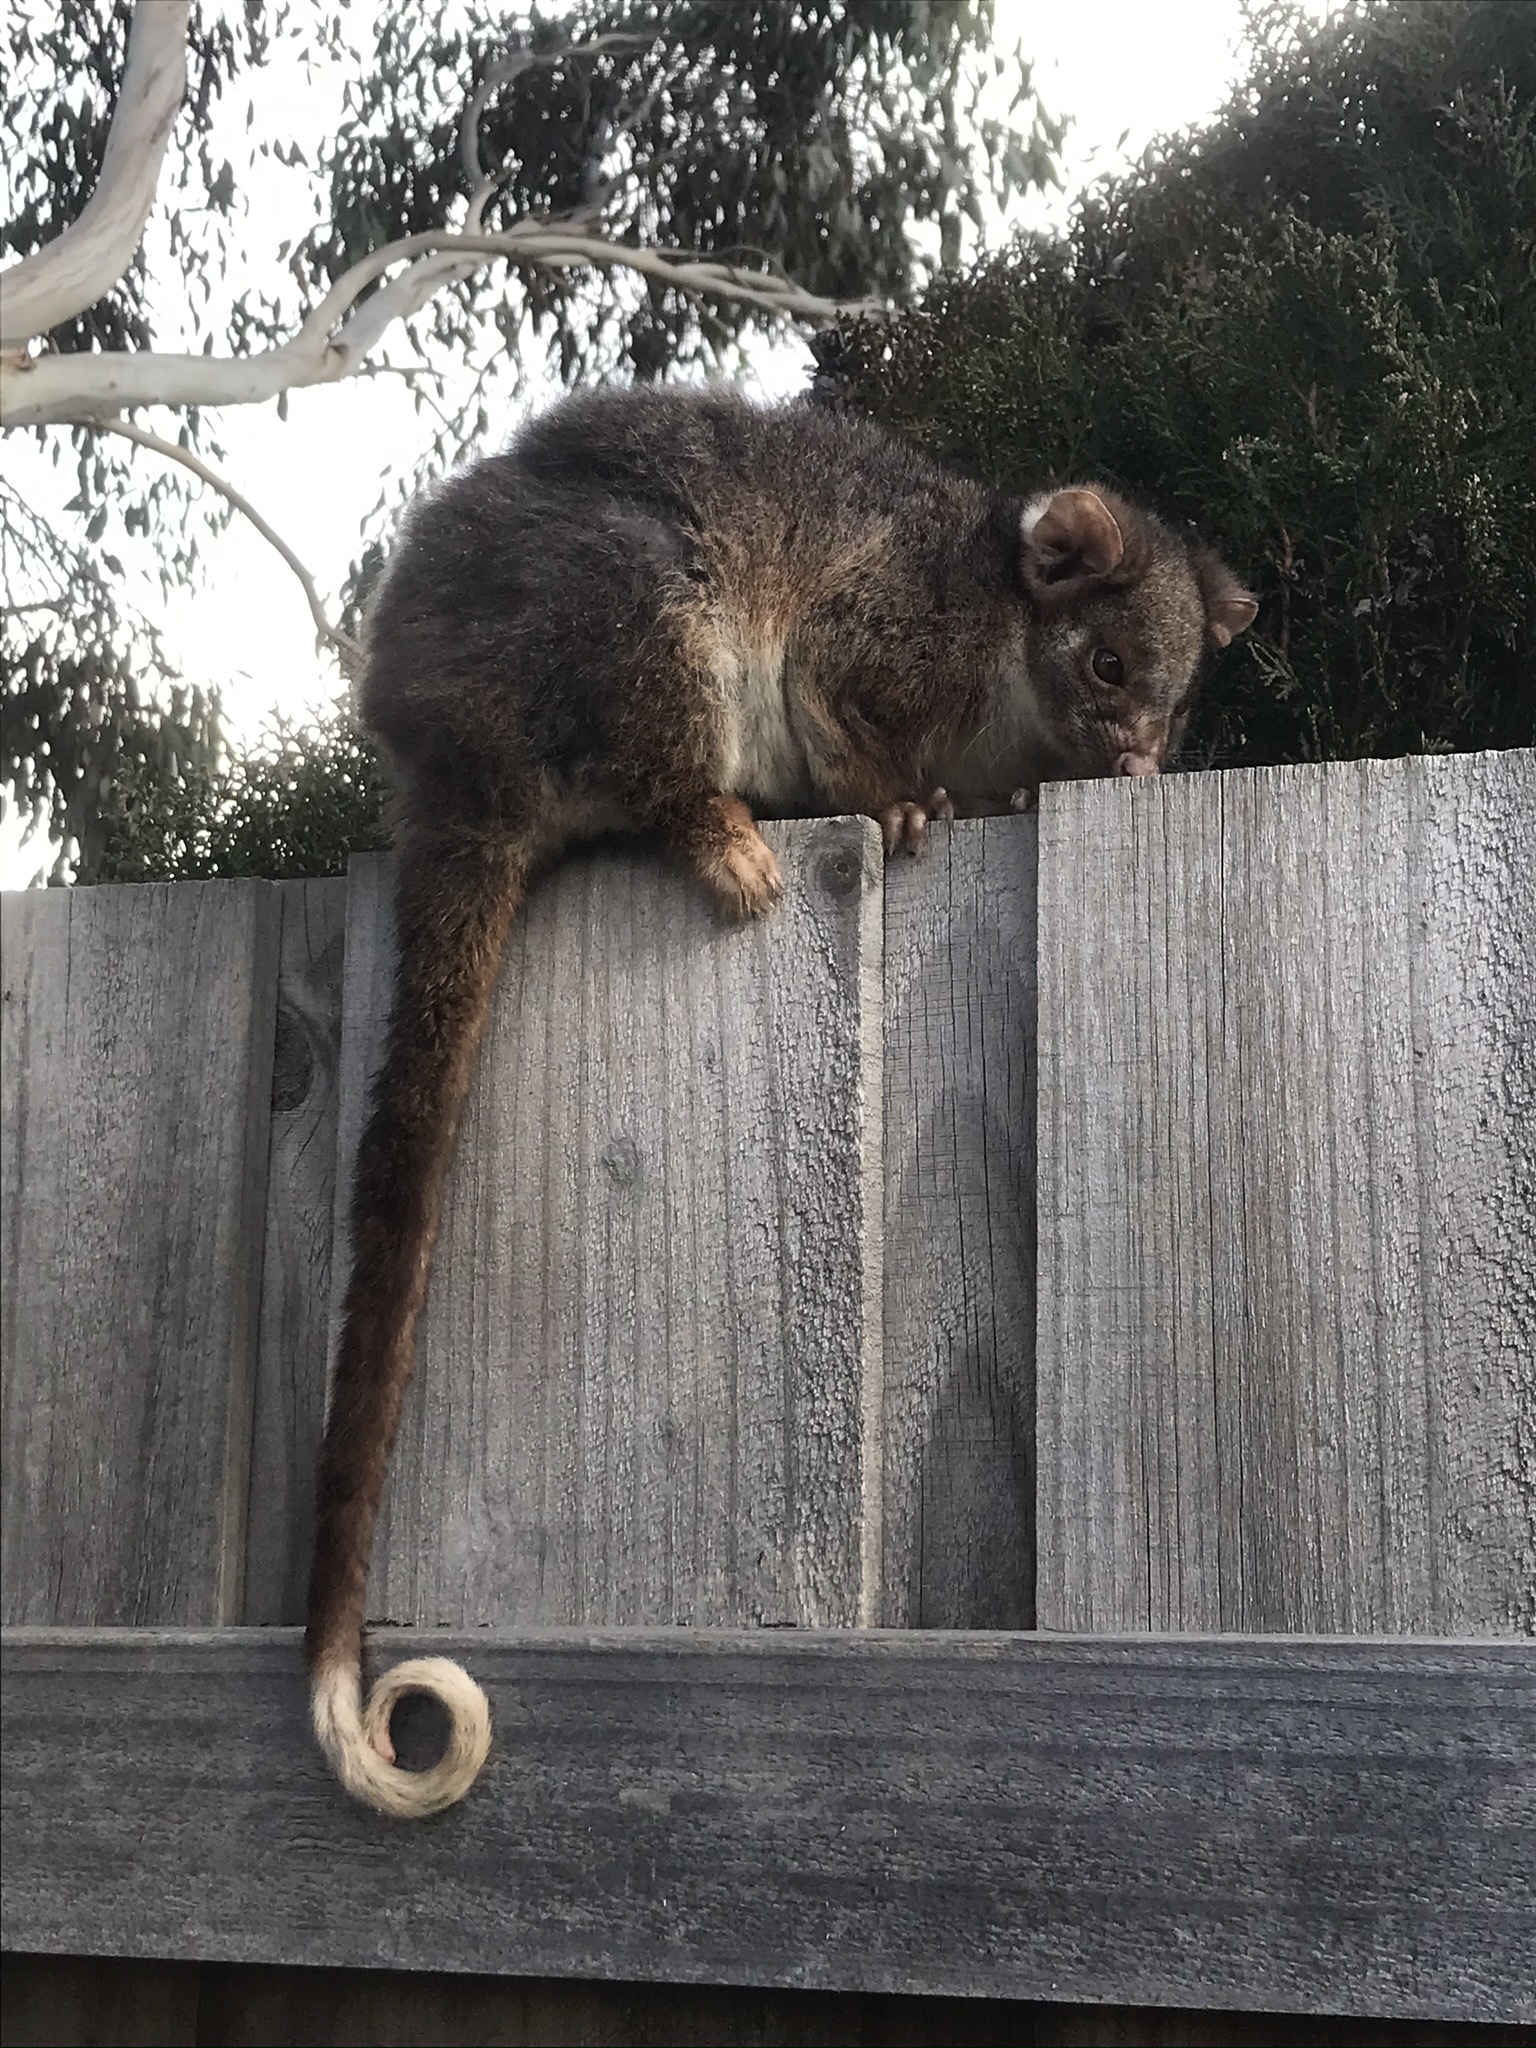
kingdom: Animalia
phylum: Chordata
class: Mammalia
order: Diprotodontia
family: Pseudocheiridae
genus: Pseudocheirus
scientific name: Pseudocheirus peregrinus
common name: Common ringtail possum
